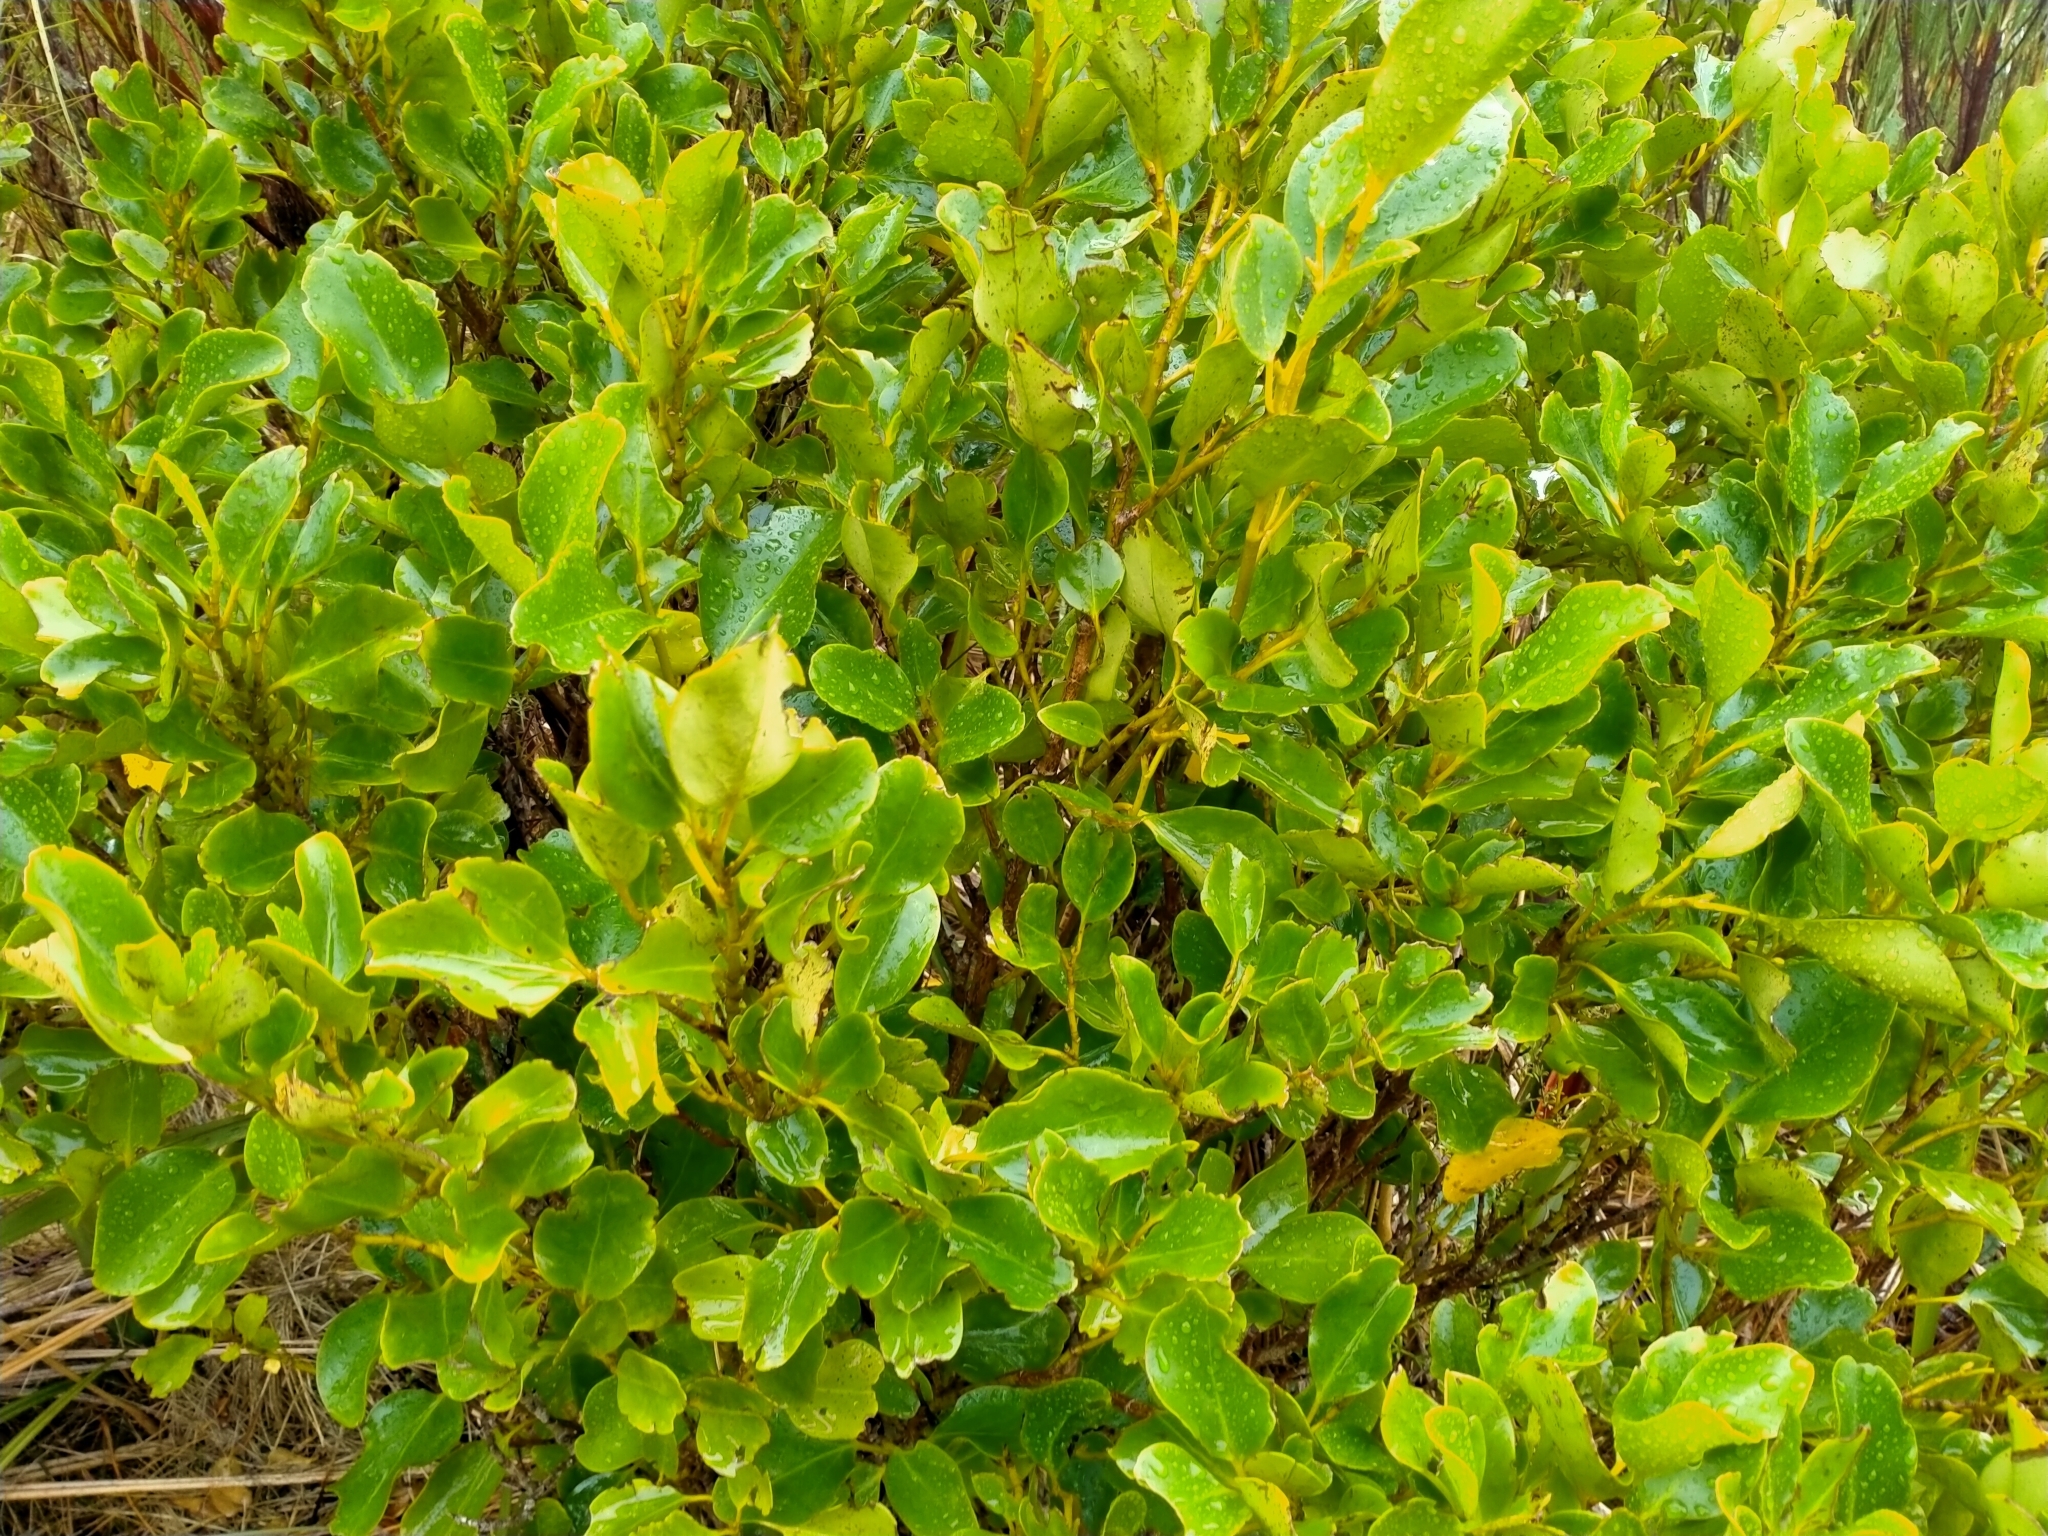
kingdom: Plantae
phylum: Tracheophyta
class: Magnoliopsida
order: Apiales
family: Griseliniaceae
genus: Griselinia
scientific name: Griselinia littoralis
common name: New zealand broadleaf
